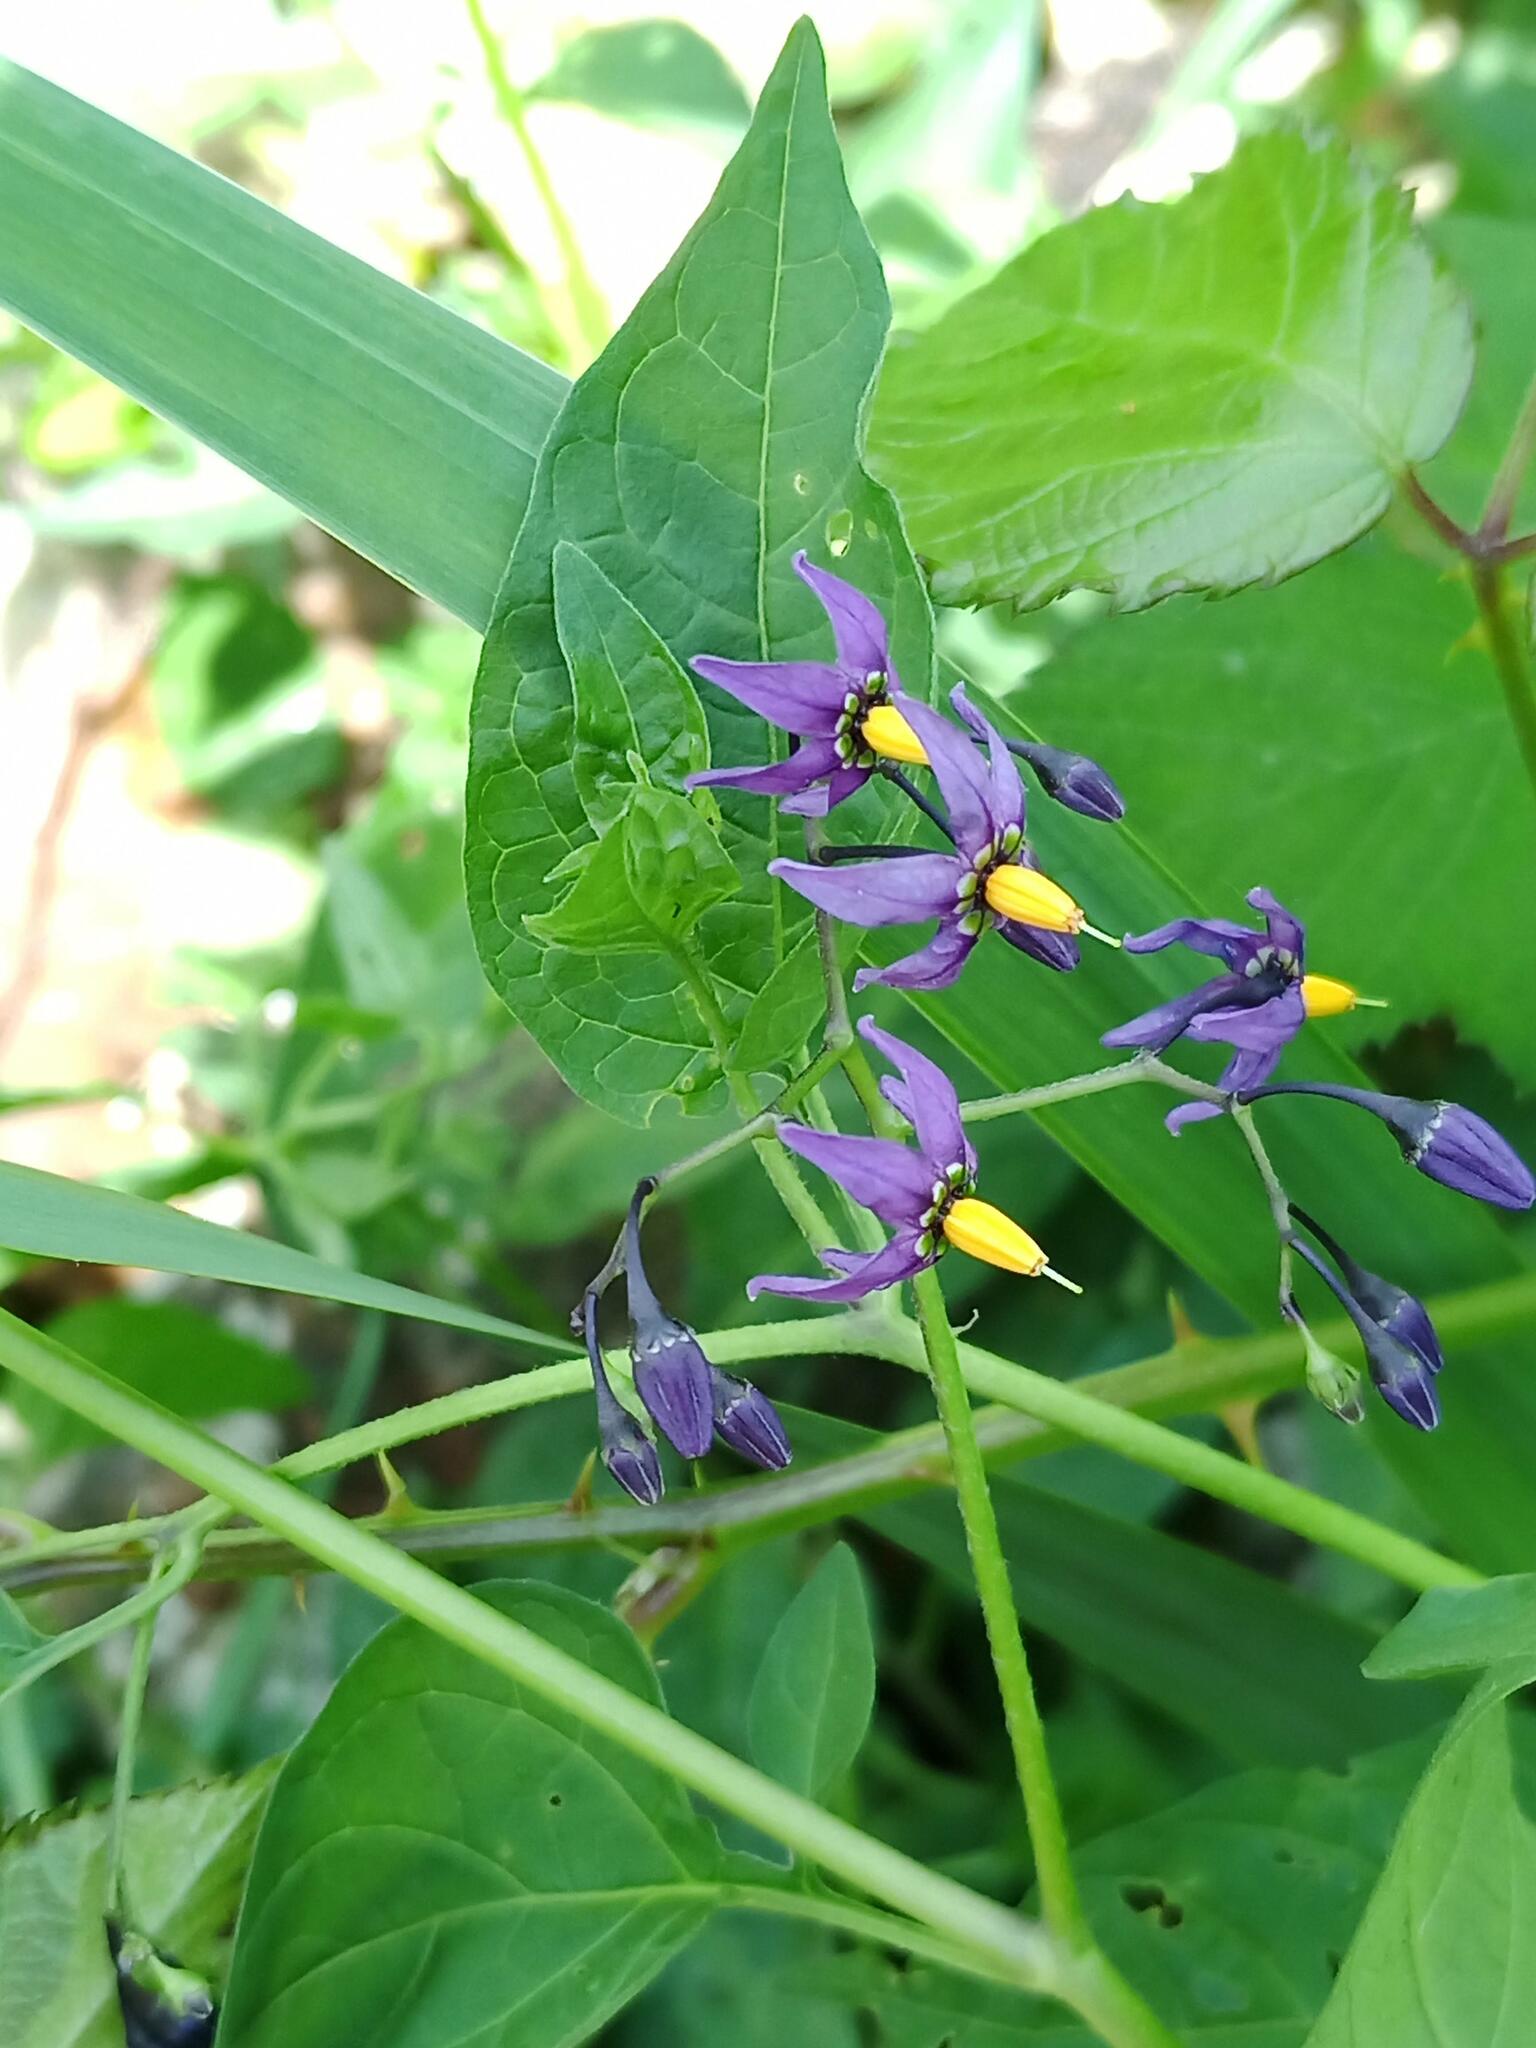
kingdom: Plantae
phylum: Tracheophyta
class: Magnoliopsida
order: Solanales
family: Solanaceae
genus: Solanum
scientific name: Solanum dulcamara
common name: Climbing nightshade
